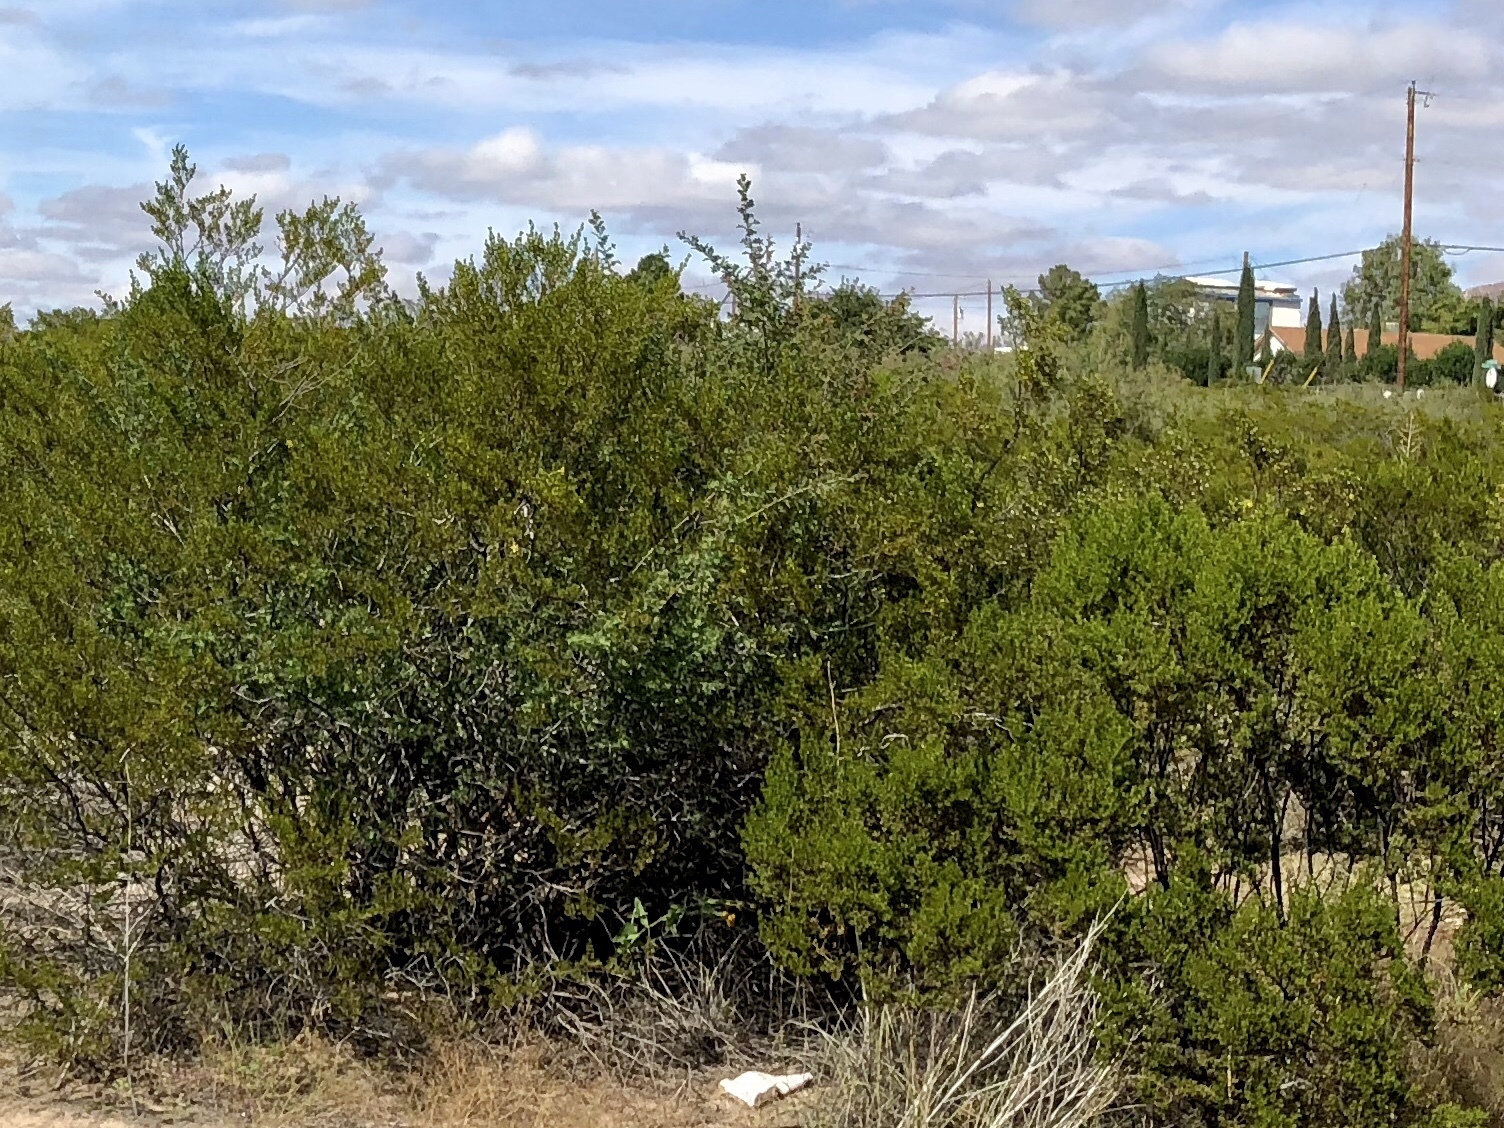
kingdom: Plantae
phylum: Tracheophyta
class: Magnoliopsida
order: Zygophyllales
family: Zygophyllaceae
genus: Larrea
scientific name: Larrea tridentata
